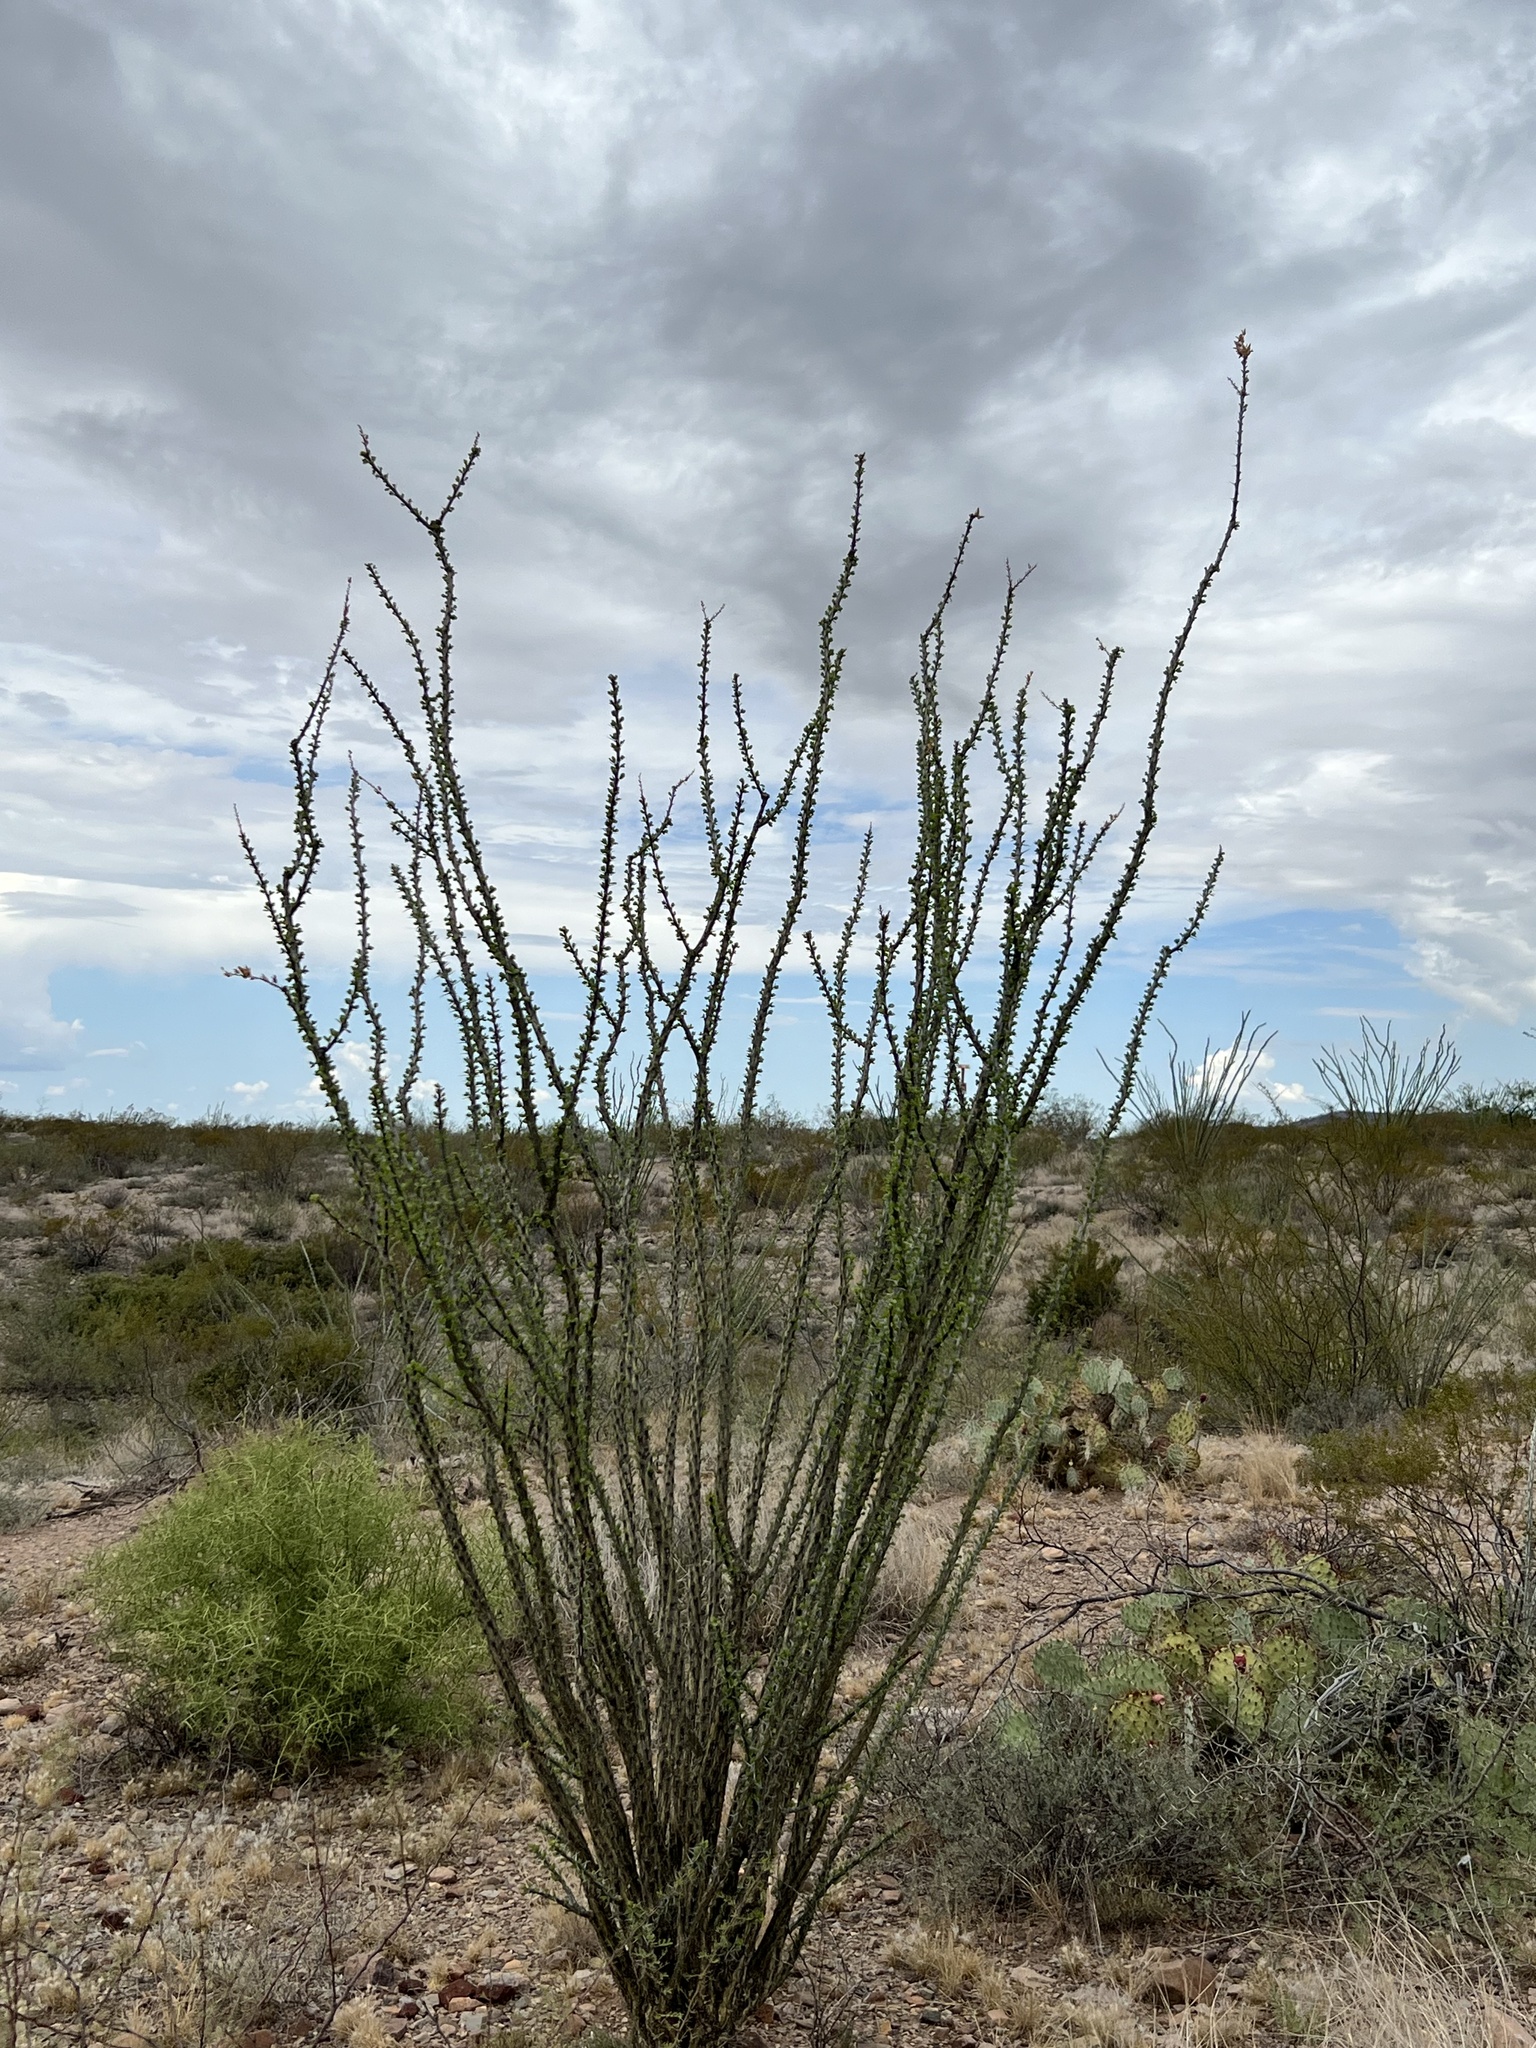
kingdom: Plantae
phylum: Tracheophyta
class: Magnoliopsida
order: Ericales
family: Fouquieriaceae
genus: Fouquieria
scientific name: Fouquieria splendens
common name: Vine-cactus
